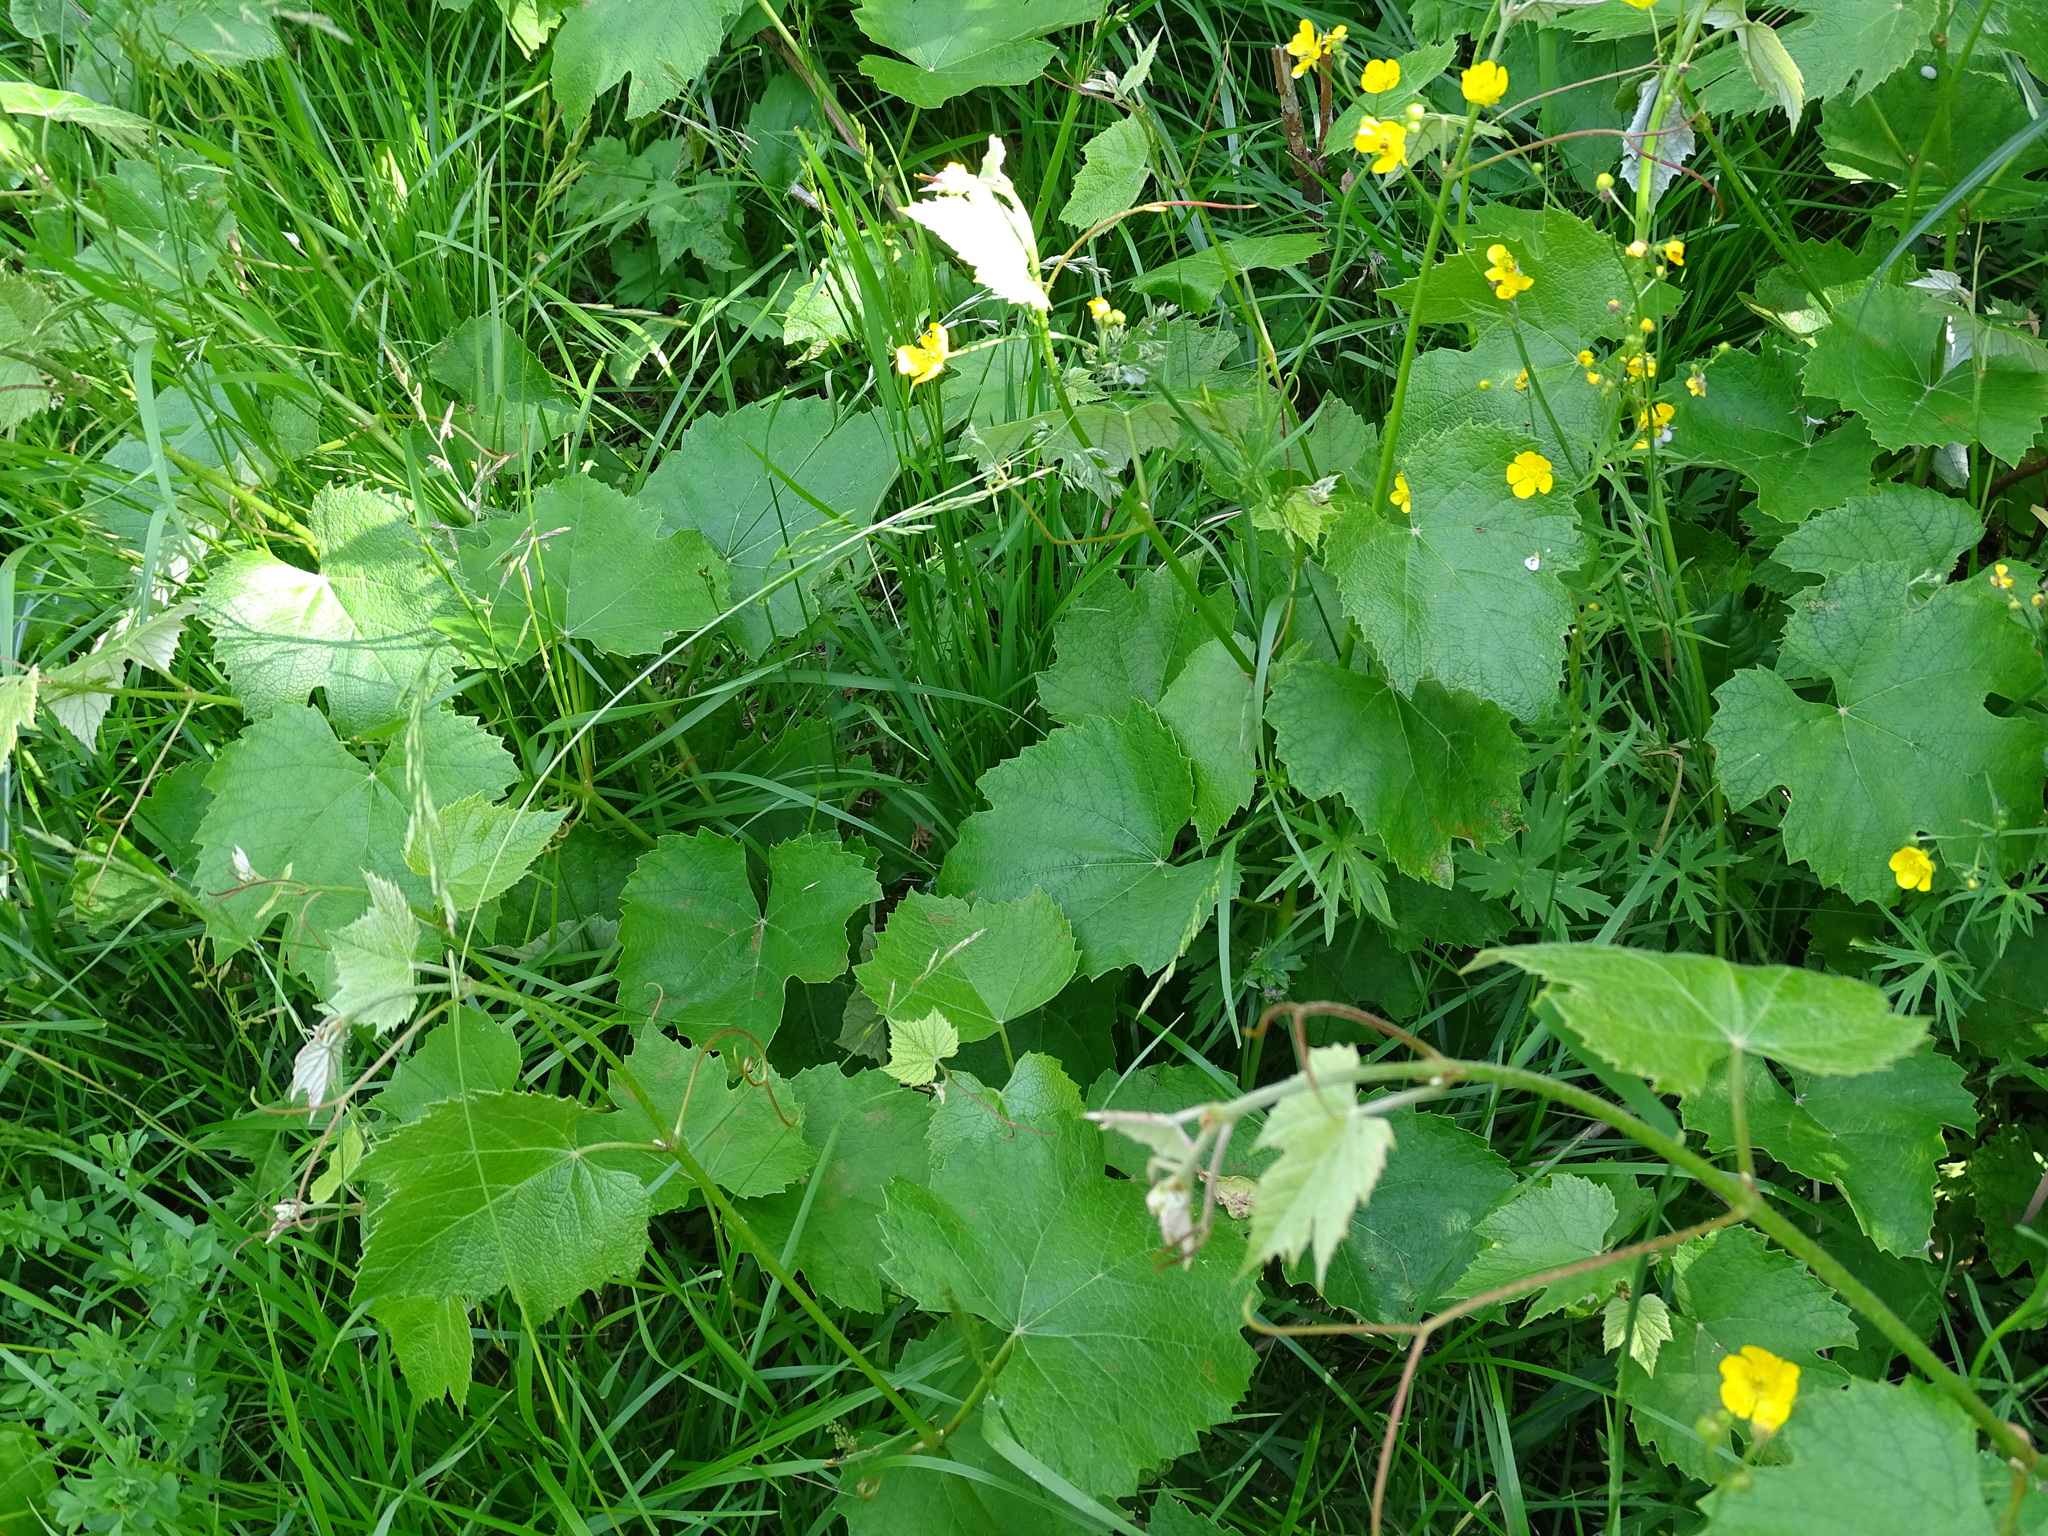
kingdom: Plantae
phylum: Tracheophyta
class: Magnoliopsida
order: Vitales
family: Vitaceae
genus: Vitis
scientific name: Vitis labrusca
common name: Concord grape
